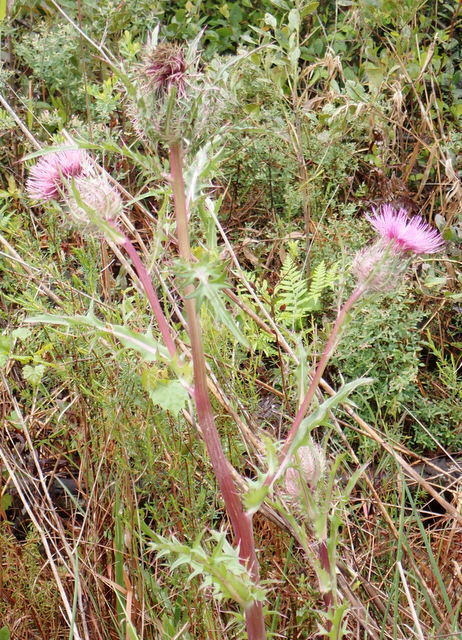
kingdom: Plantae
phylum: Tracheophyta
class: Magnoliopsida
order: Asterales
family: Asteraceae
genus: Cirsium
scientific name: Cirsium horridulum
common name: Bristly thistle
